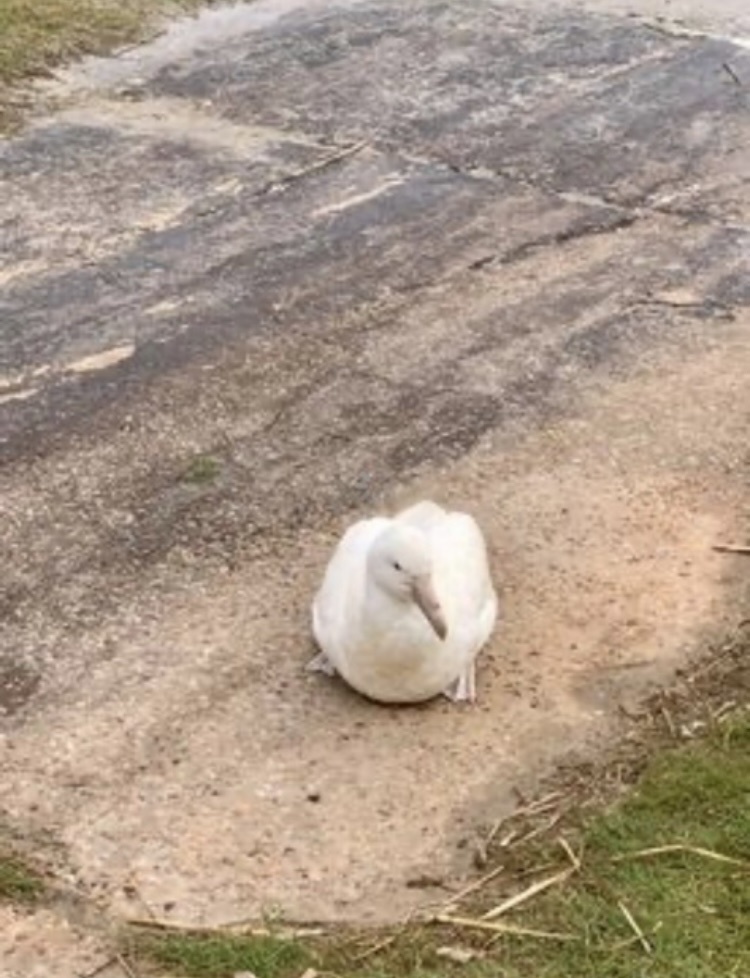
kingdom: Animalia
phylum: Chordata
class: Aves
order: Procellariiformes
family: Procellariidae
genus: Macronectes
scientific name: Macronectes giganteus
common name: Southern giant petrel
